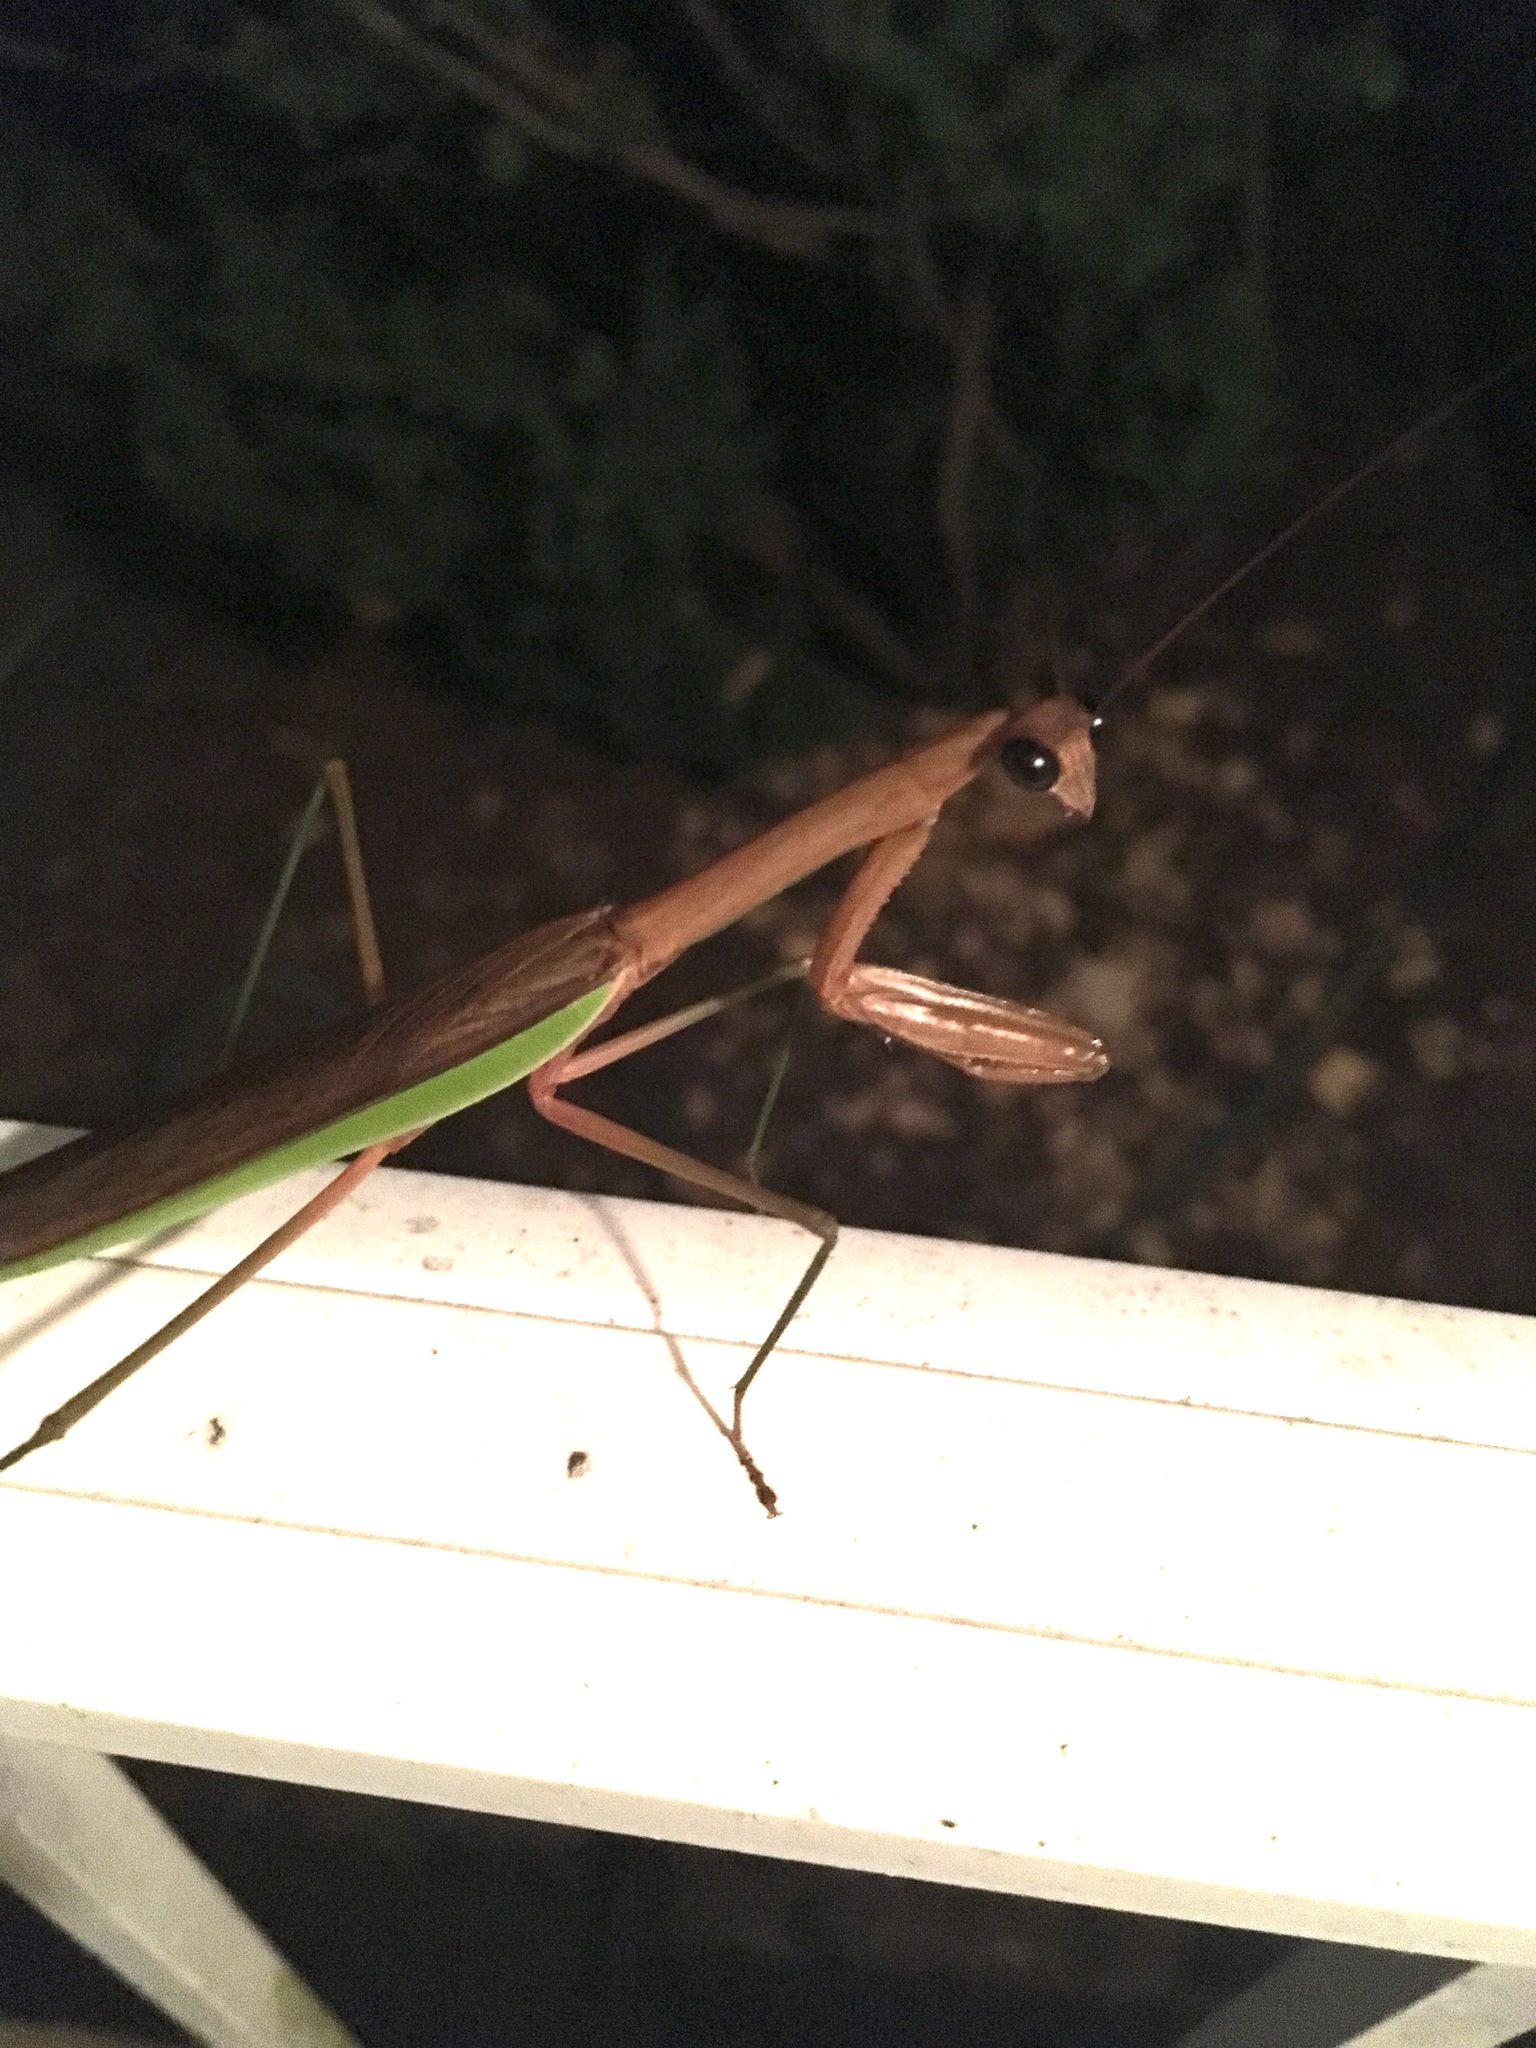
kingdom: Animalia
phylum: Arthropoda
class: Insecta
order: Mantodea
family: Mantidae
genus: Tenodera
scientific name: Tenodera sinensis
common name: Chinese mantis
